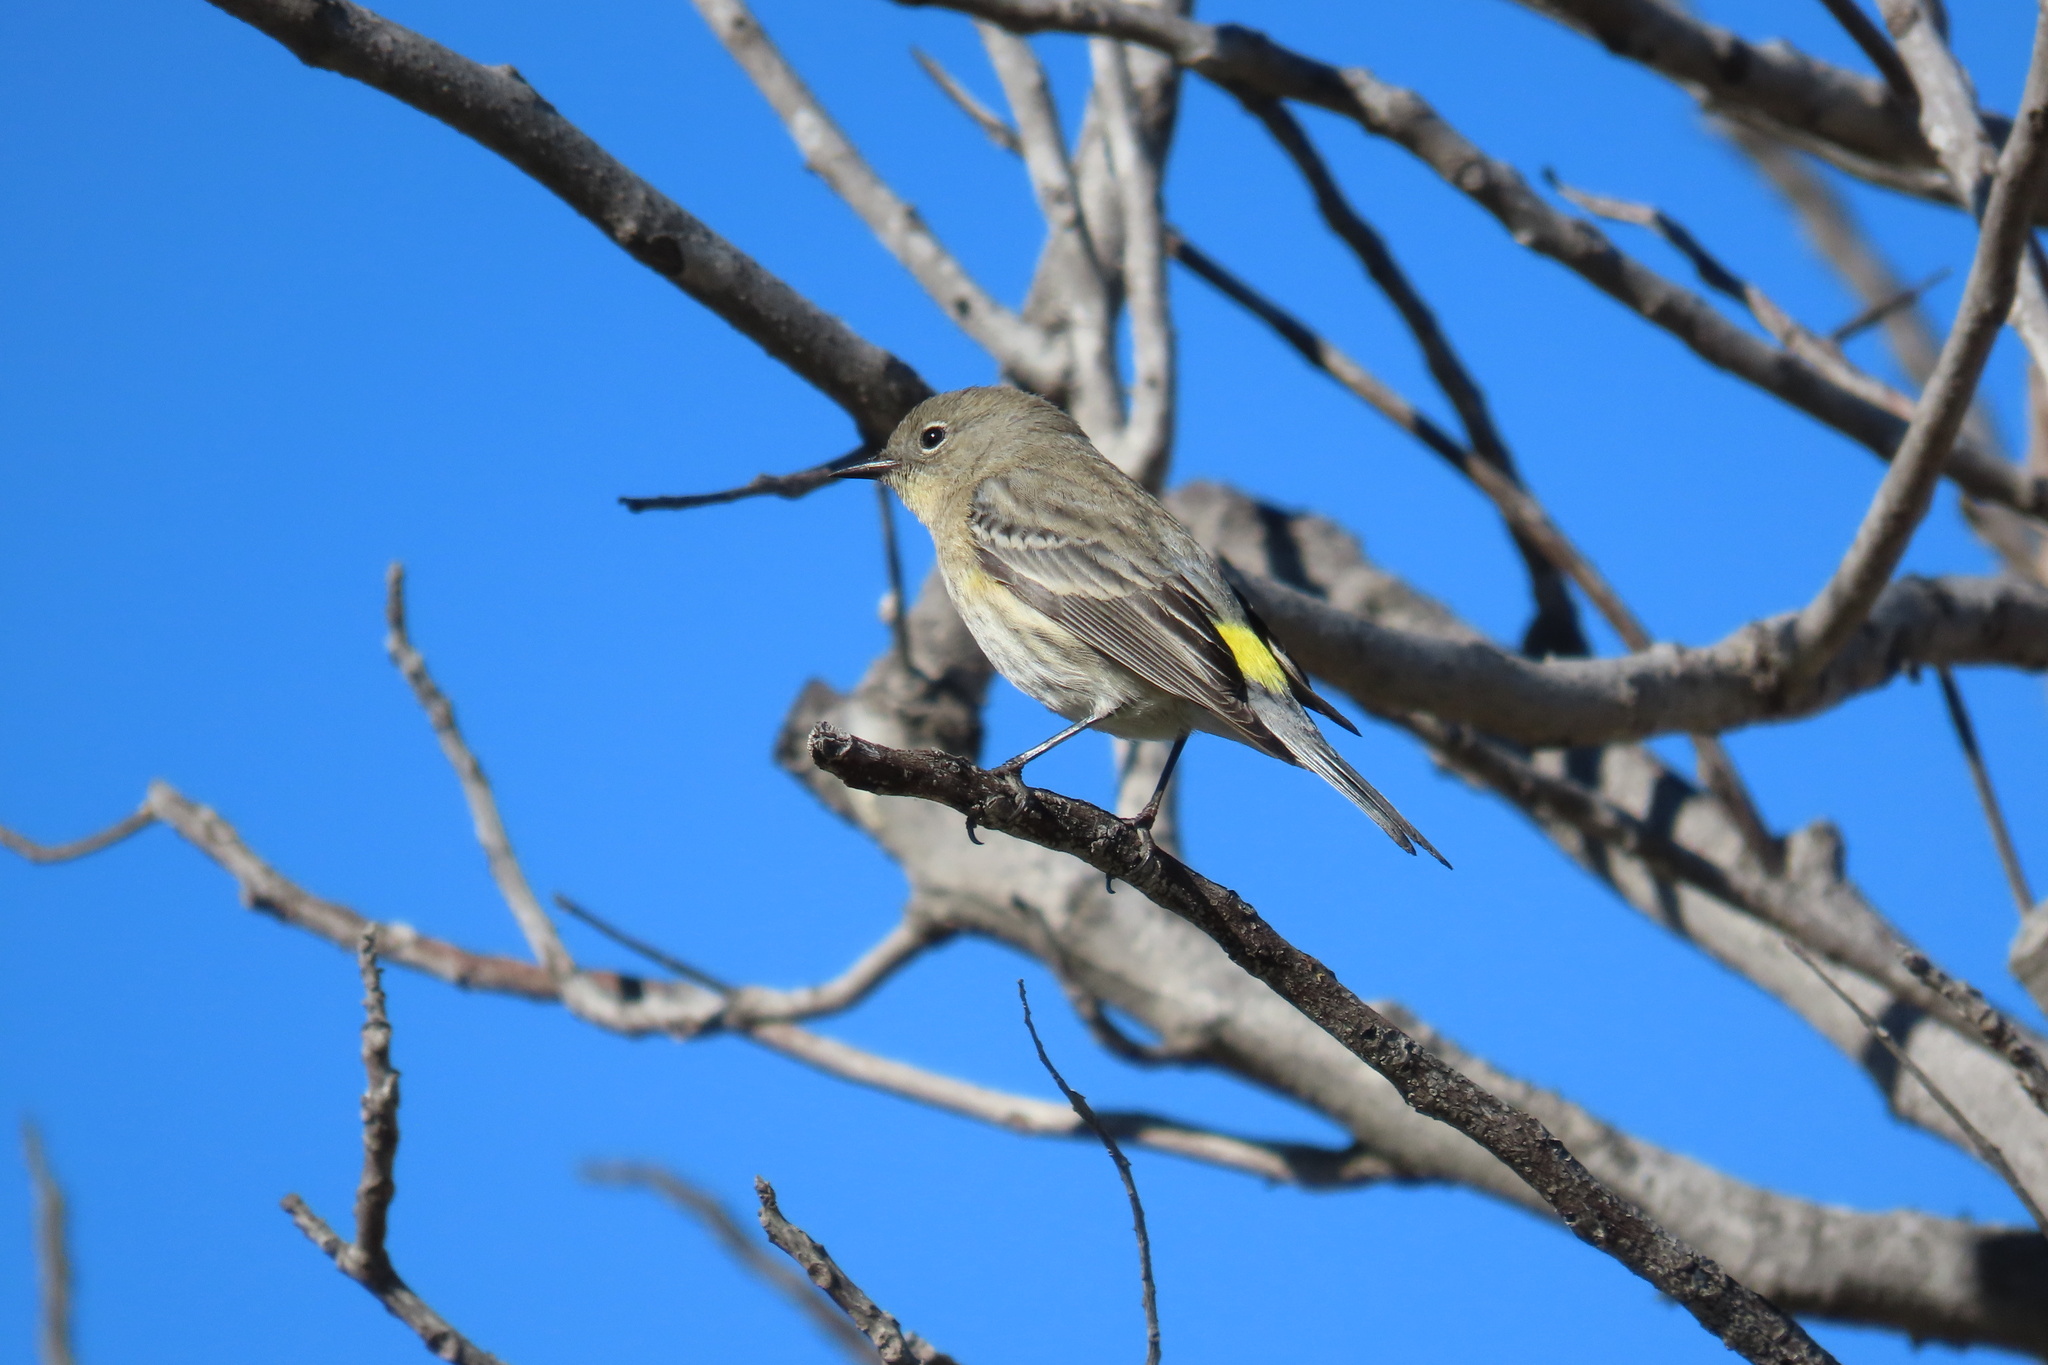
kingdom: Animalia
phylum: Chordata
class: Aves
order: Passeriformes
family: Parulidae
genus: Setophaga
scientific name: Setophaga coronata
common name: Myrtle warbler
